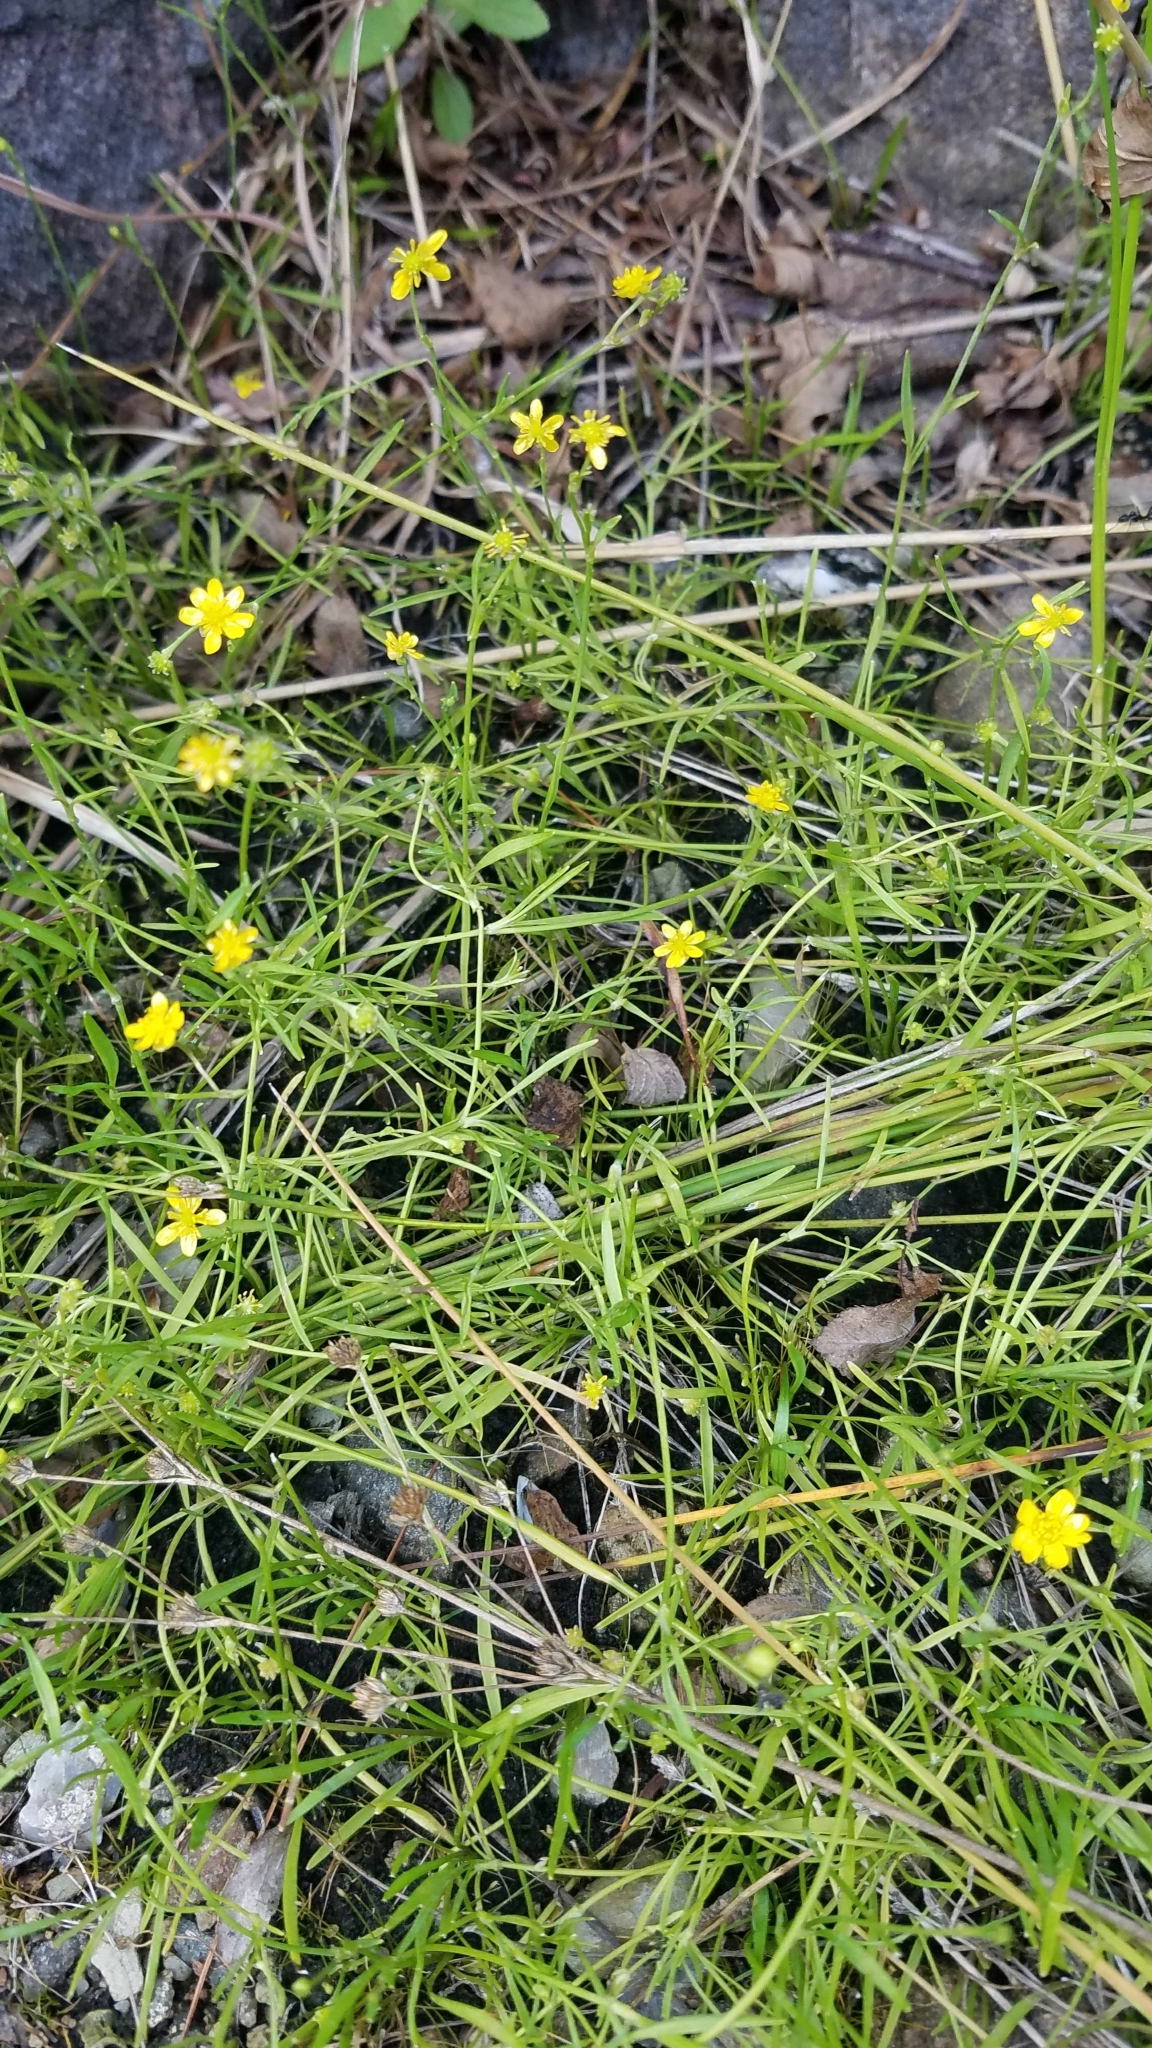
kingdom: Plantae
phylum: Tracheophyta
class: Magnoliopsida
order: Ranunculales
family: Ranunculaceae
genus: Ranunculus
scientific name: Ranunculus reptans
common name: Creeping spearwort
